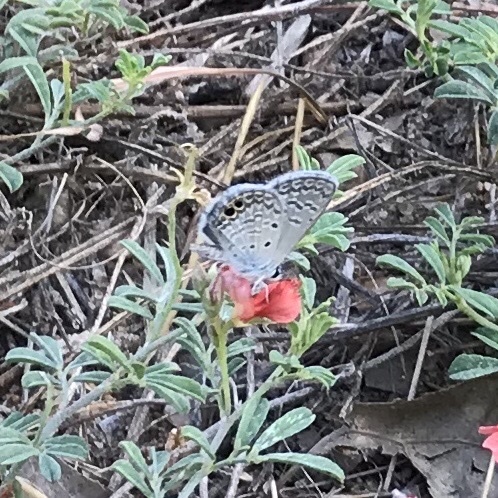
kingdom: Animalia
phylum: Arthropoda
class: Insecta
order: Lepidoptera
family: Lycaenidae
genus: Hemiargus
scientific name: Hemiargus ceraunus
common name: Ceraunus blue
